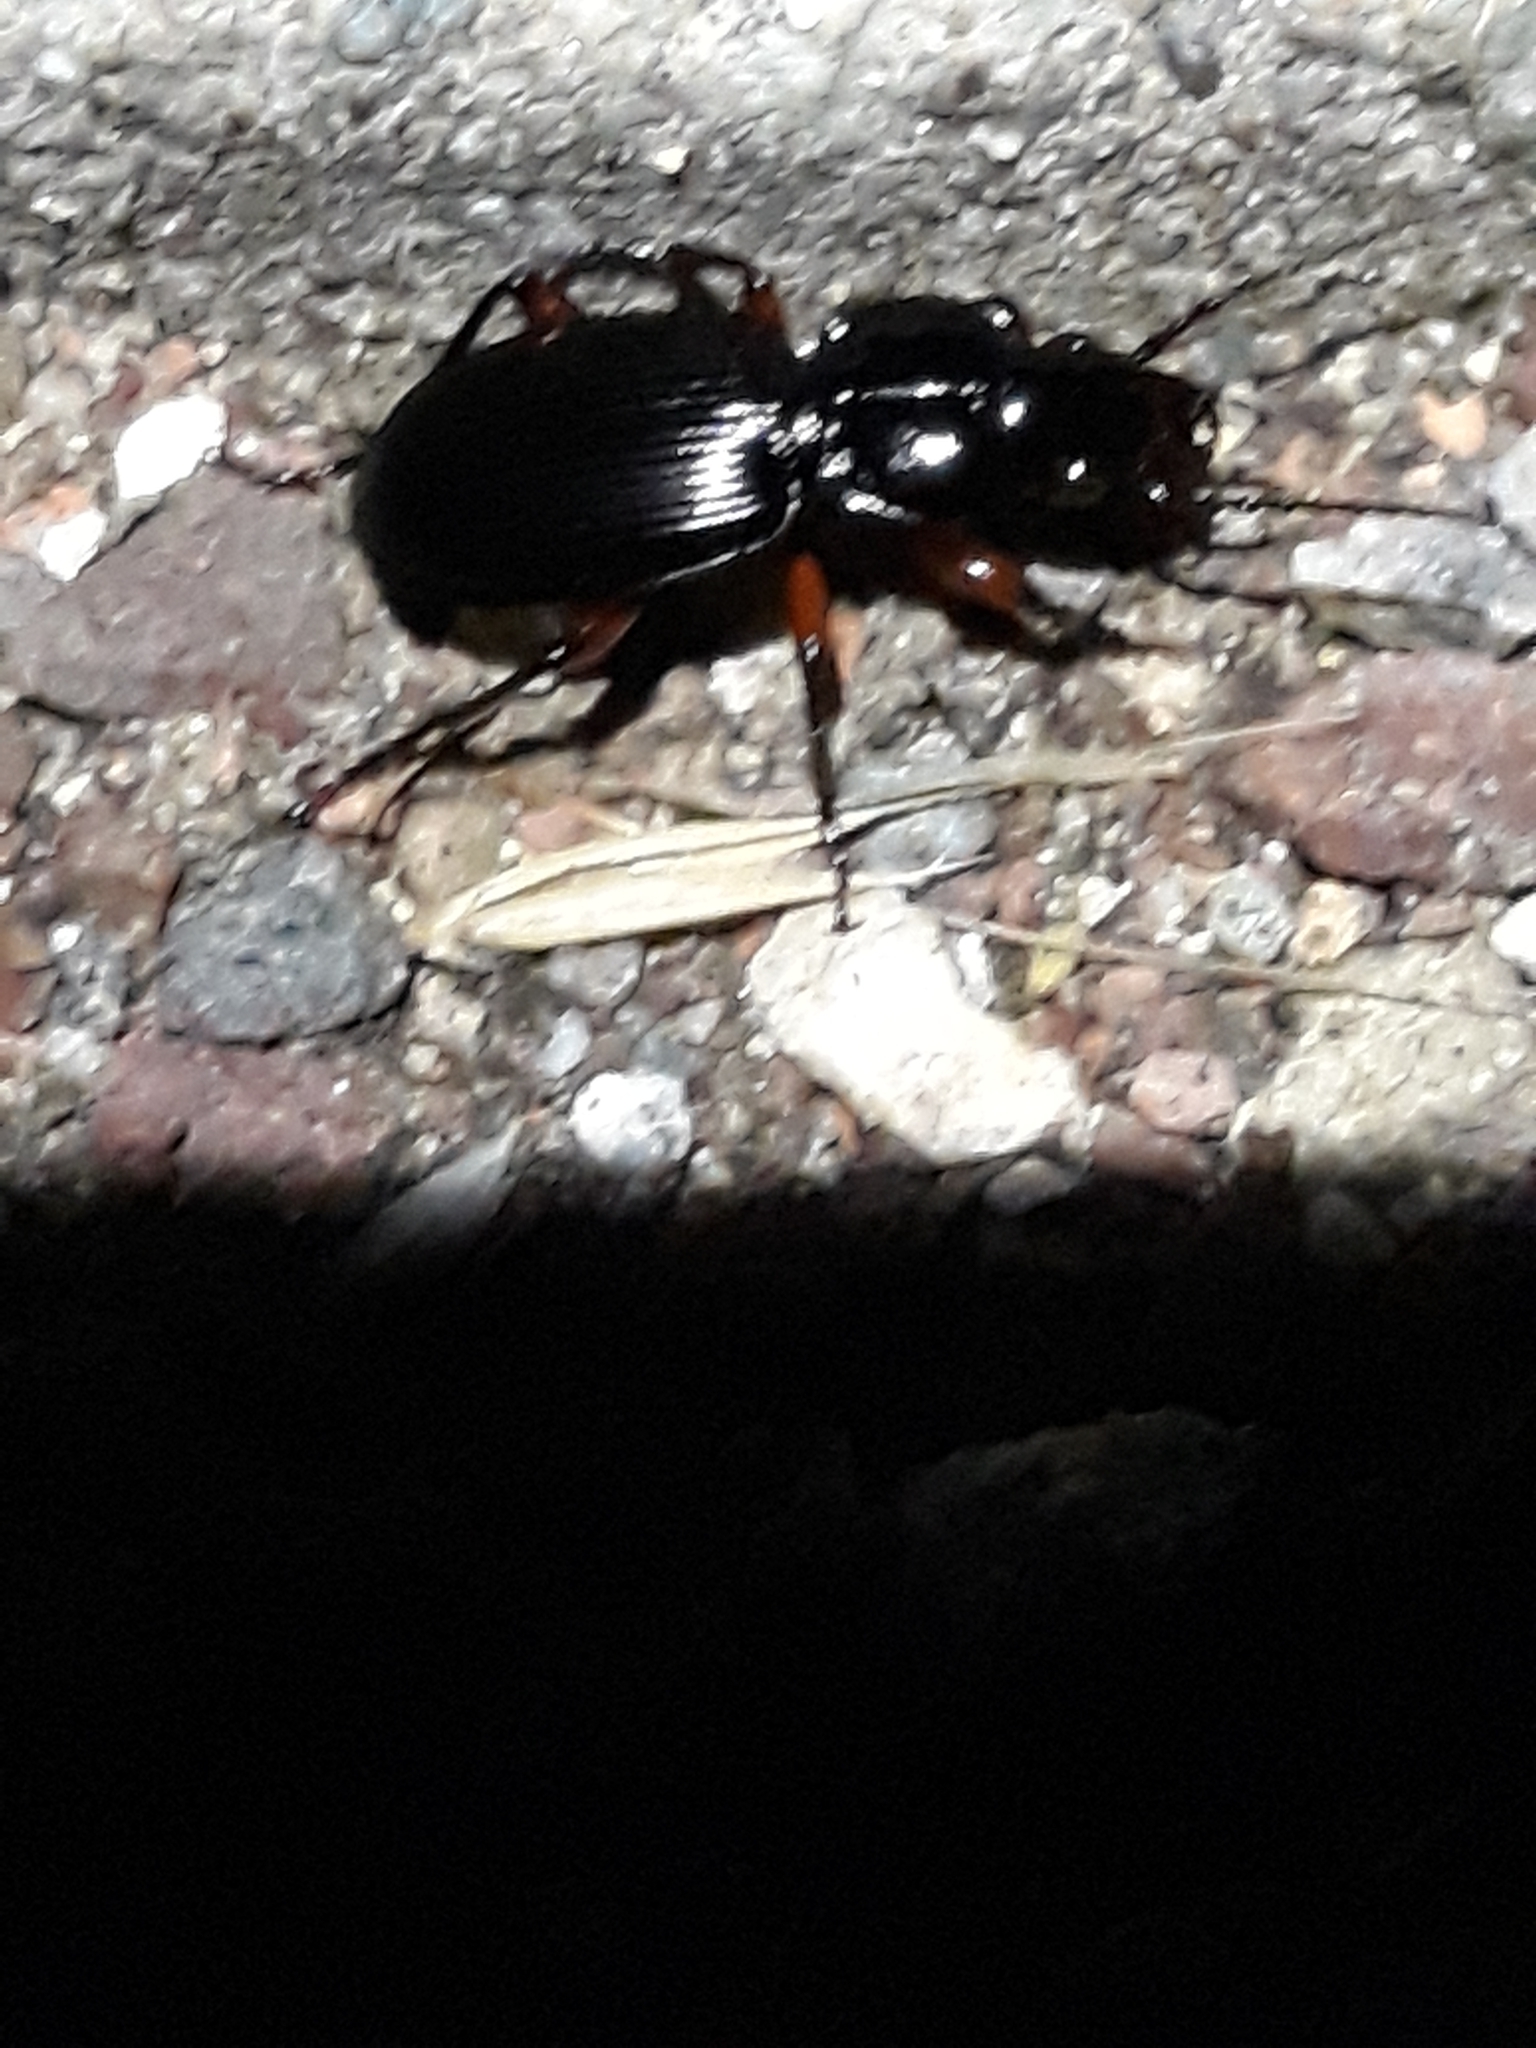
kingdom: Animalia
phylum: Arthropoda
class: Insecta
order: Coleoptera
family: Carabidae
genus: Pterostichus
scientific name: Pterostichus madidus
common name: Black clock
